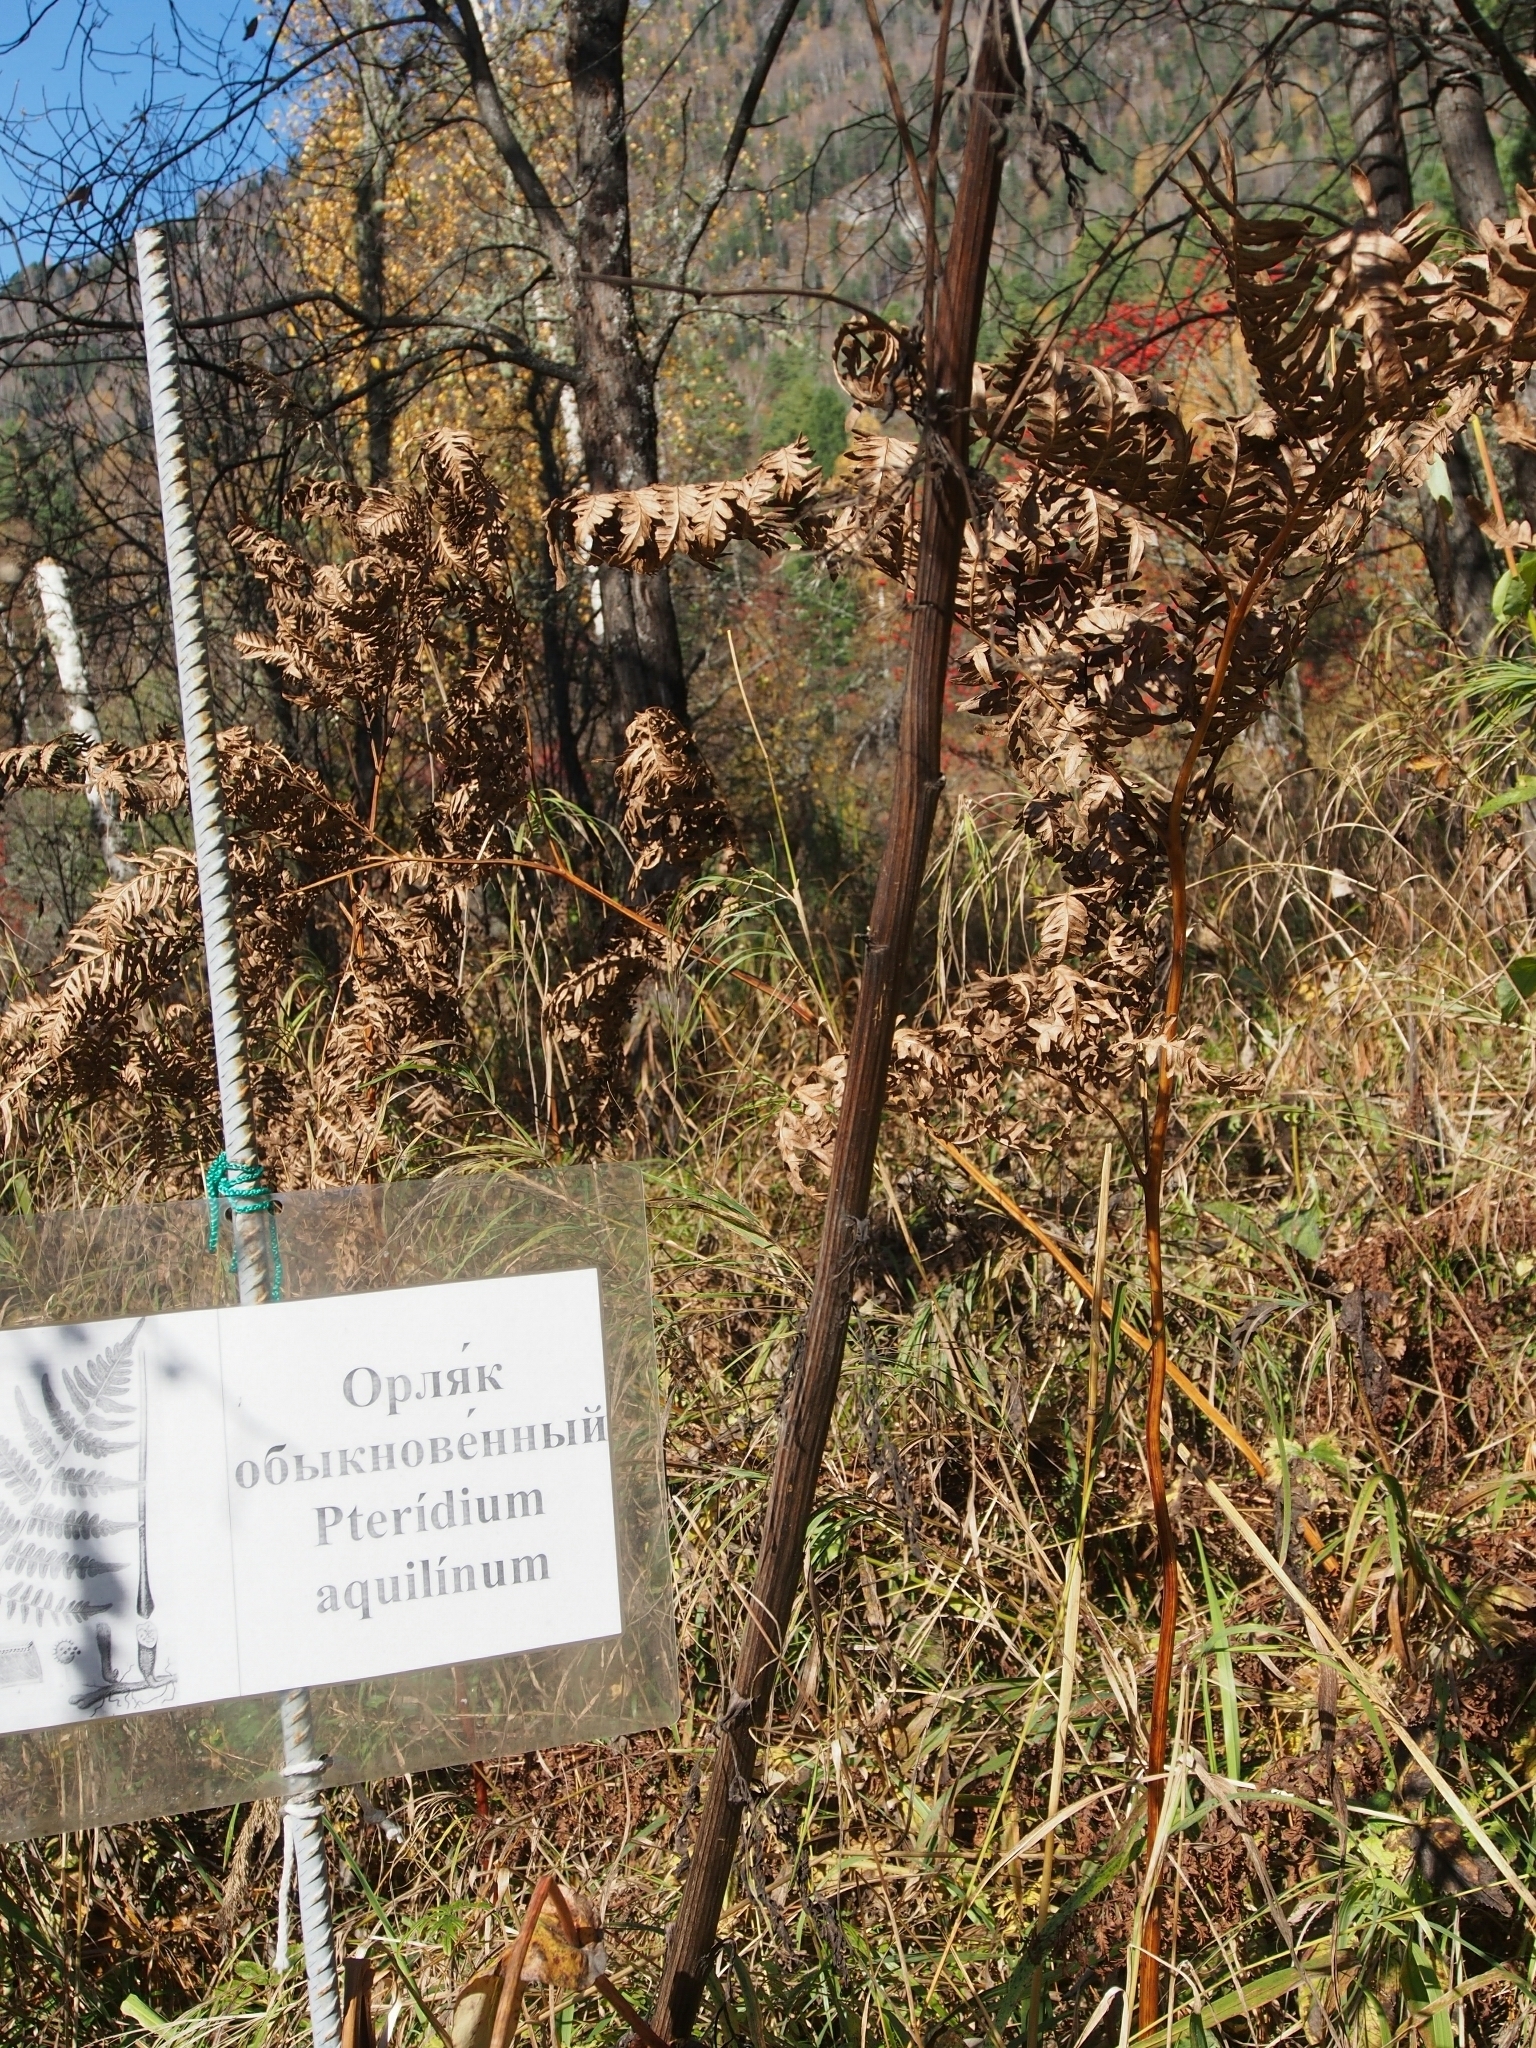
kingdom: Plantae
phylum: Tracheophyta
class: Polypodiopsida
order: Polypodiales
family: Dennstaedtiaceae
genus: Pteridium
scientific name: Pteridium aquilinum
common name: Bracken
